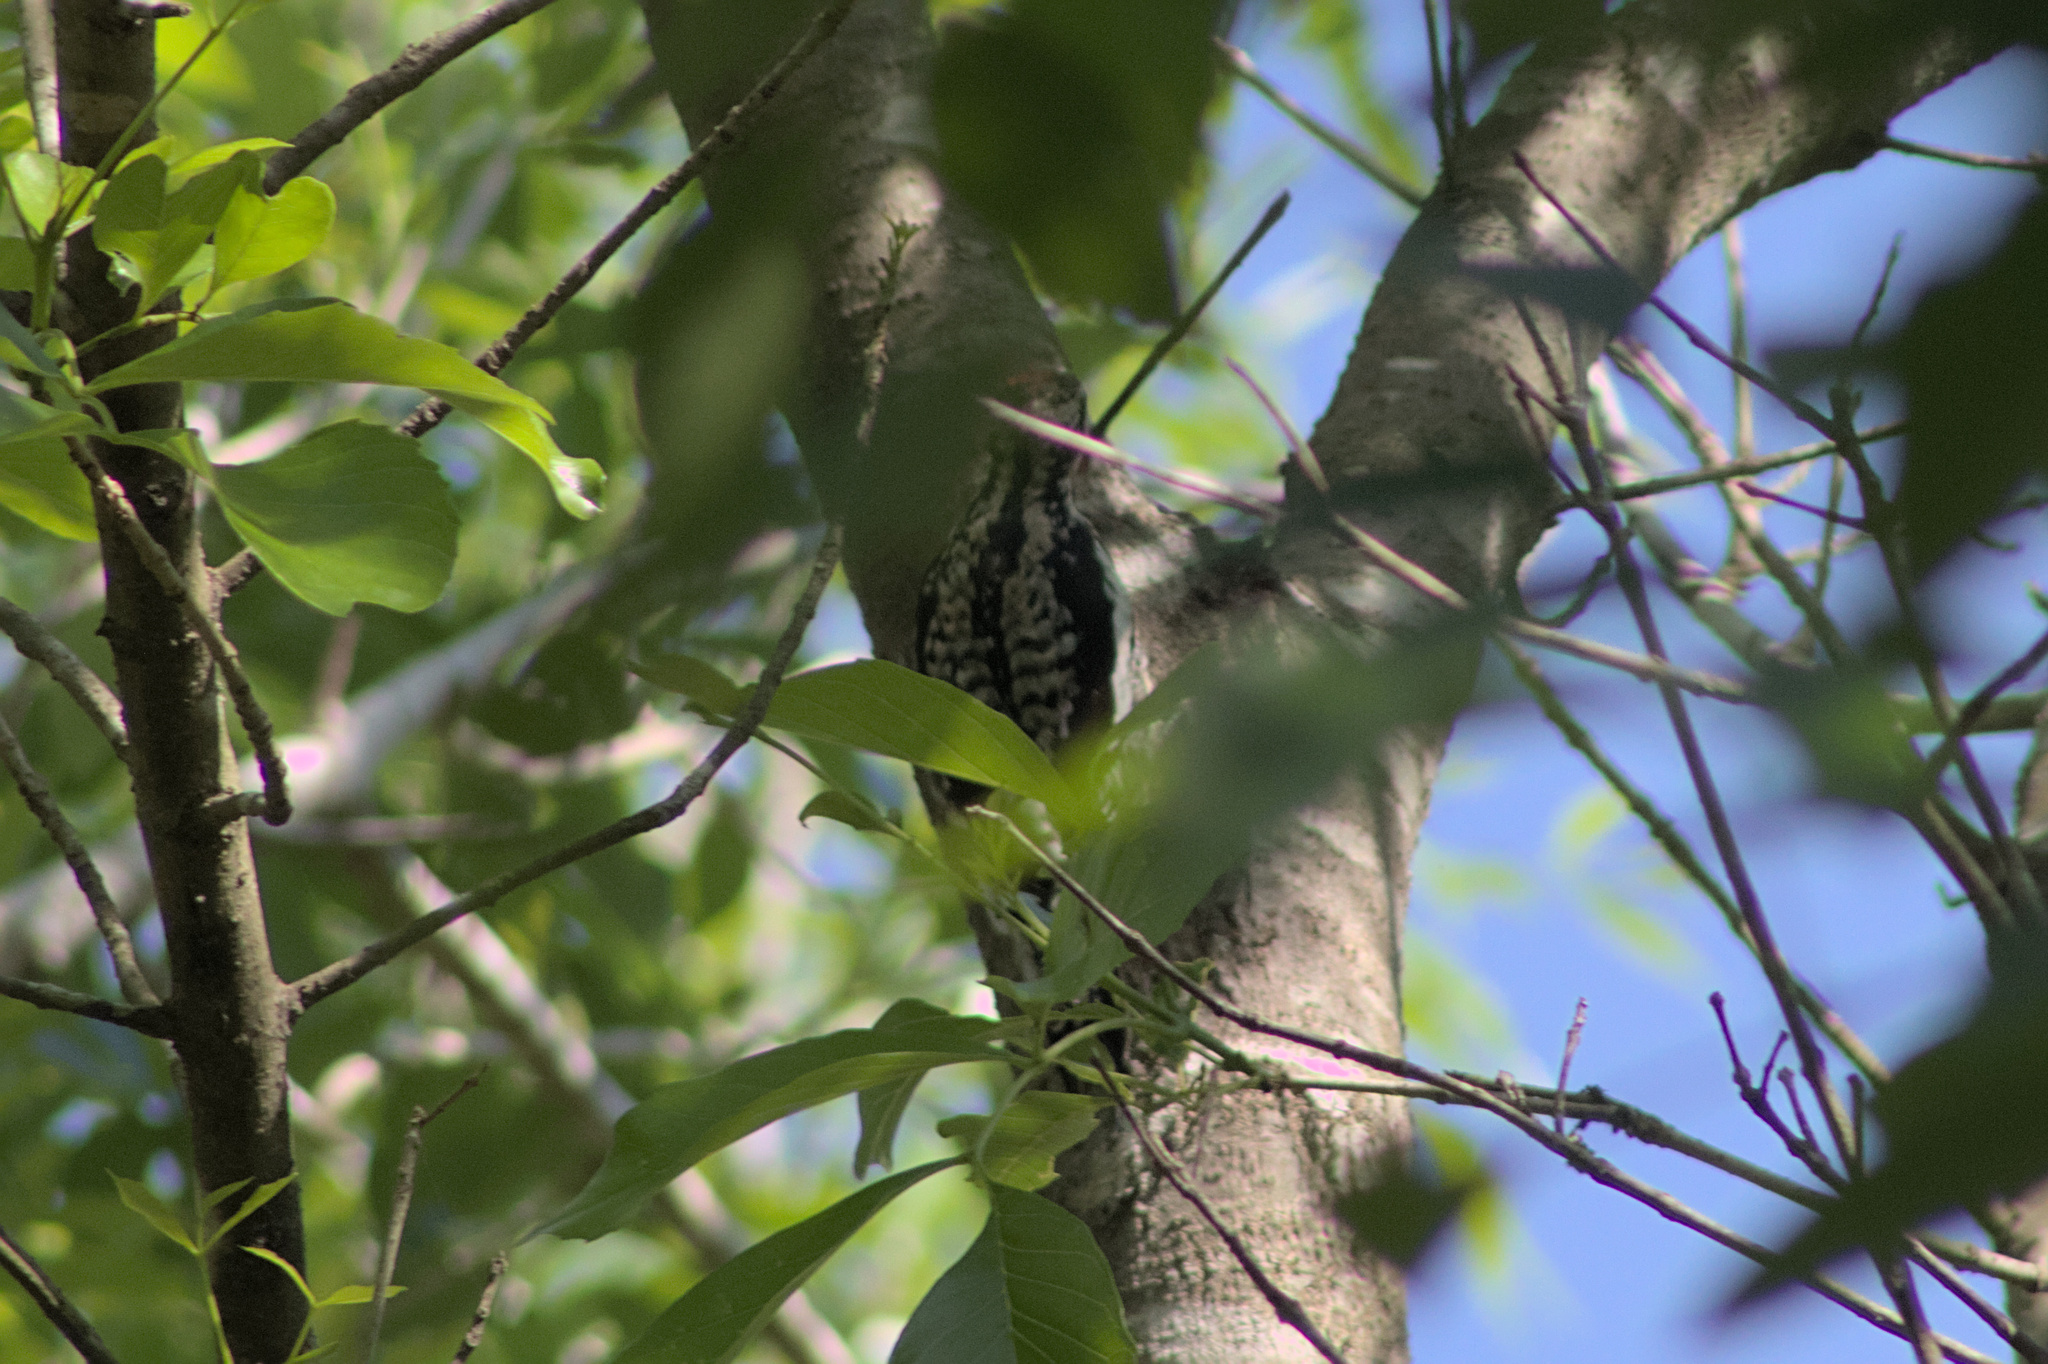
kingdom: Animalia
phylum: Chordata
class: Aves
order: Piciformes
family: Picidae
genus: Sphyrapicus
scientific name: Sphyrapicus varius
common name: Yellow-bellied sapsucker
